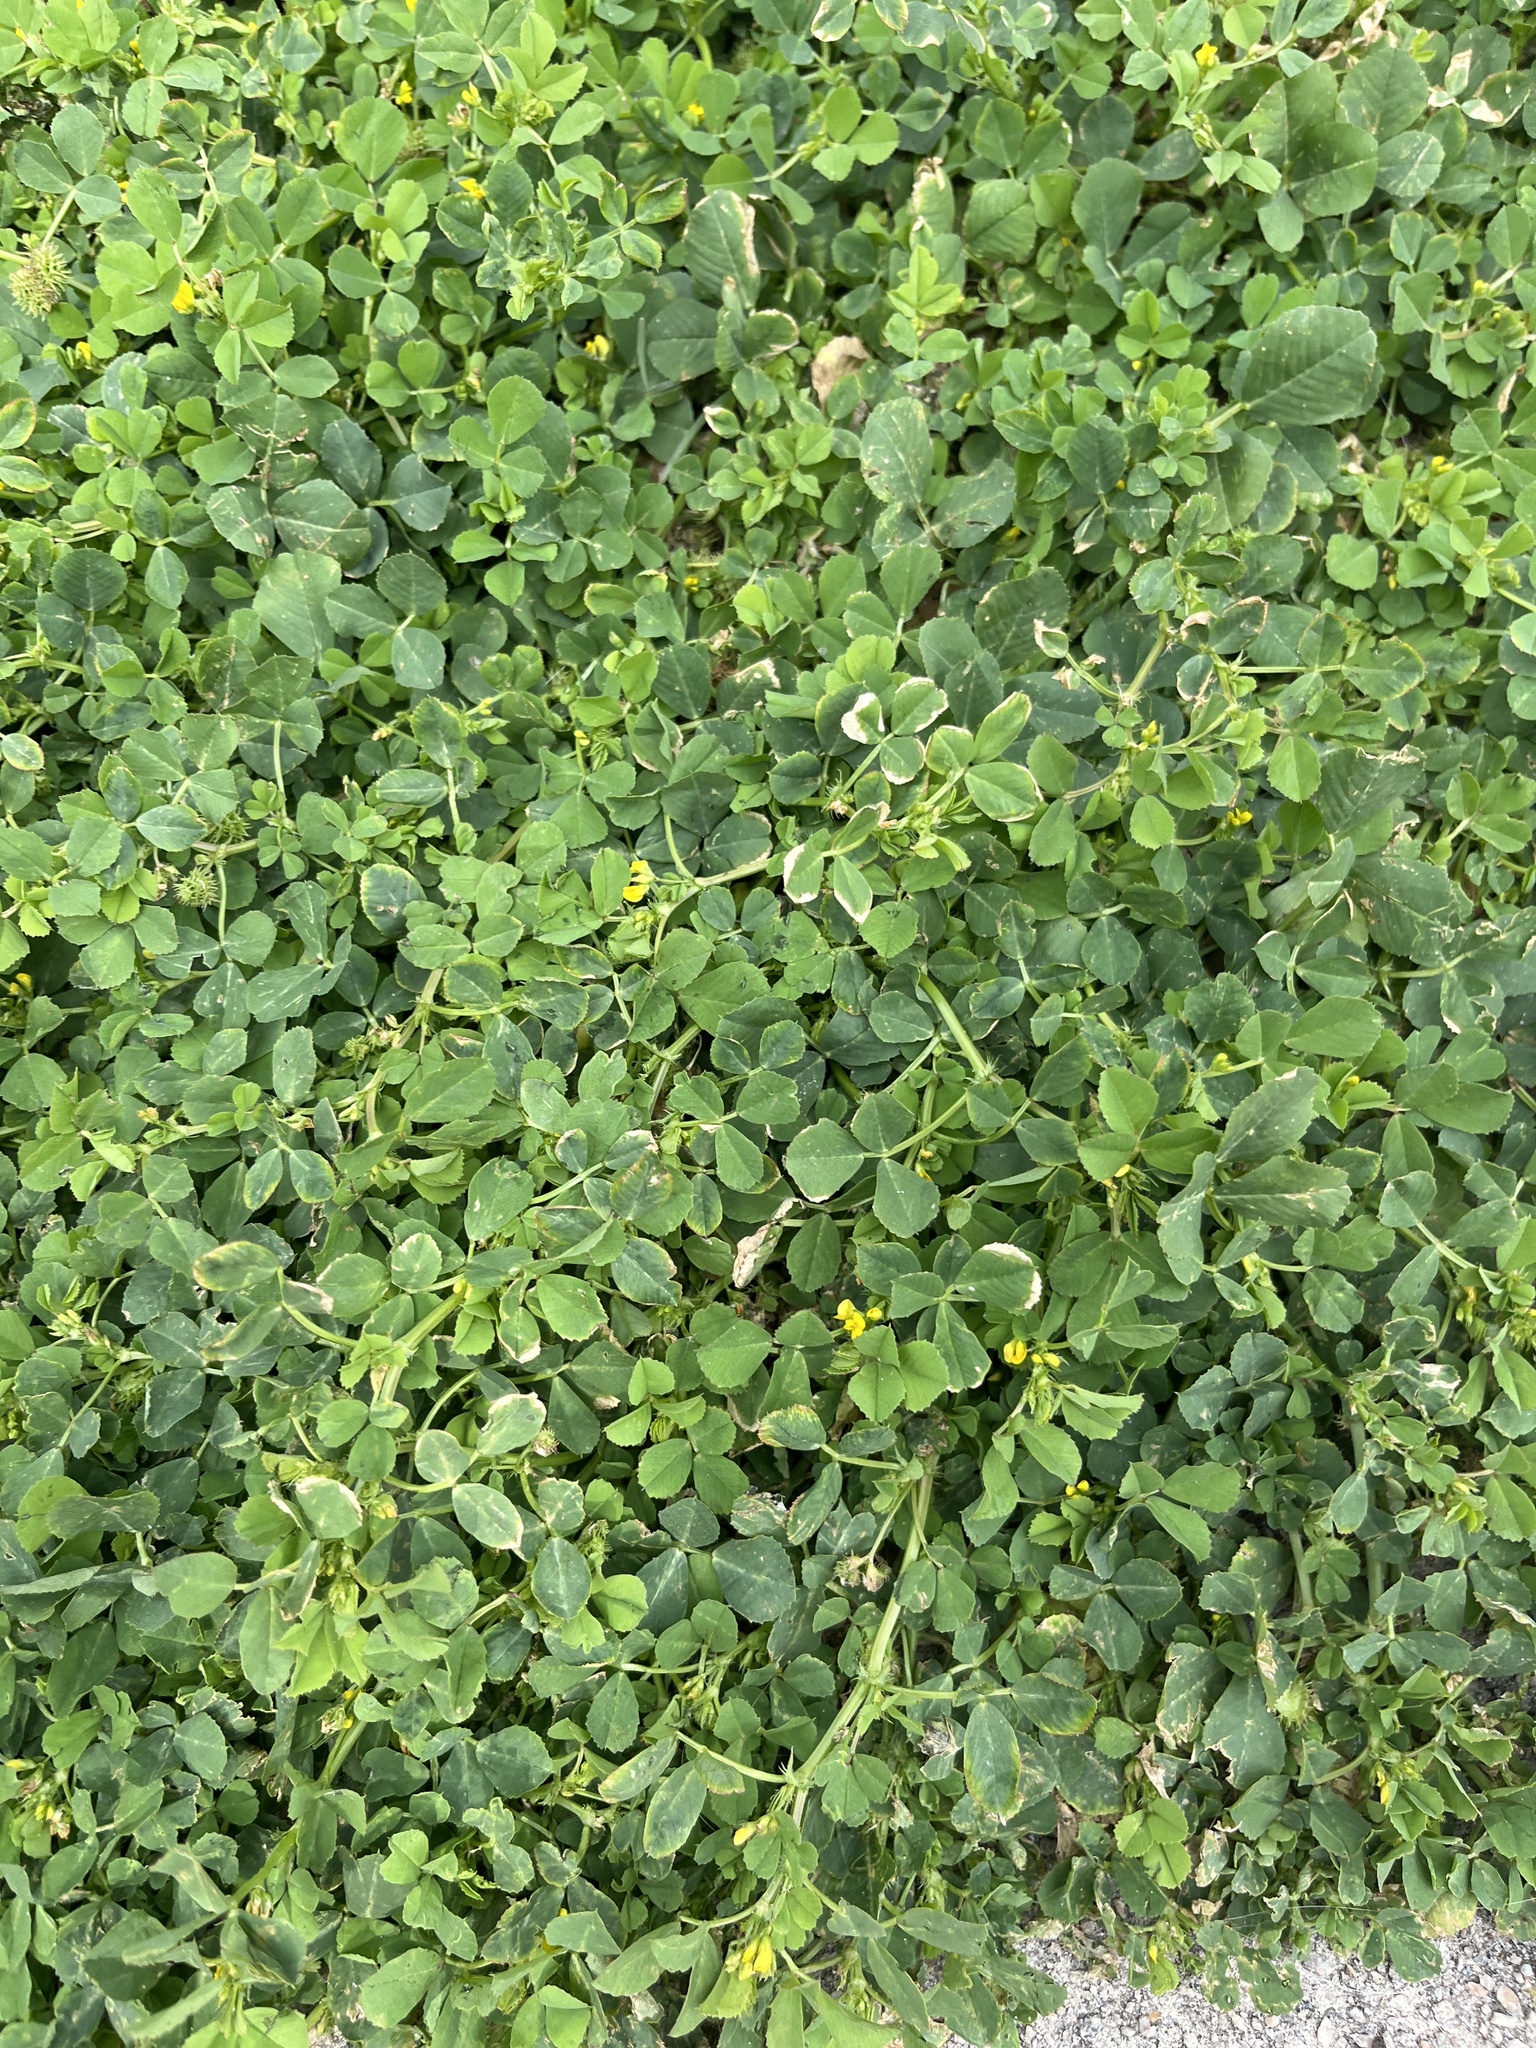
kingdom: Plantae
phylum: Tracheophyta
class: Magnoliopsida
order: Fabales
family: Fabaceae
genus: Medicago
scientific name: Medicago polymorpha
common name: Burclover
